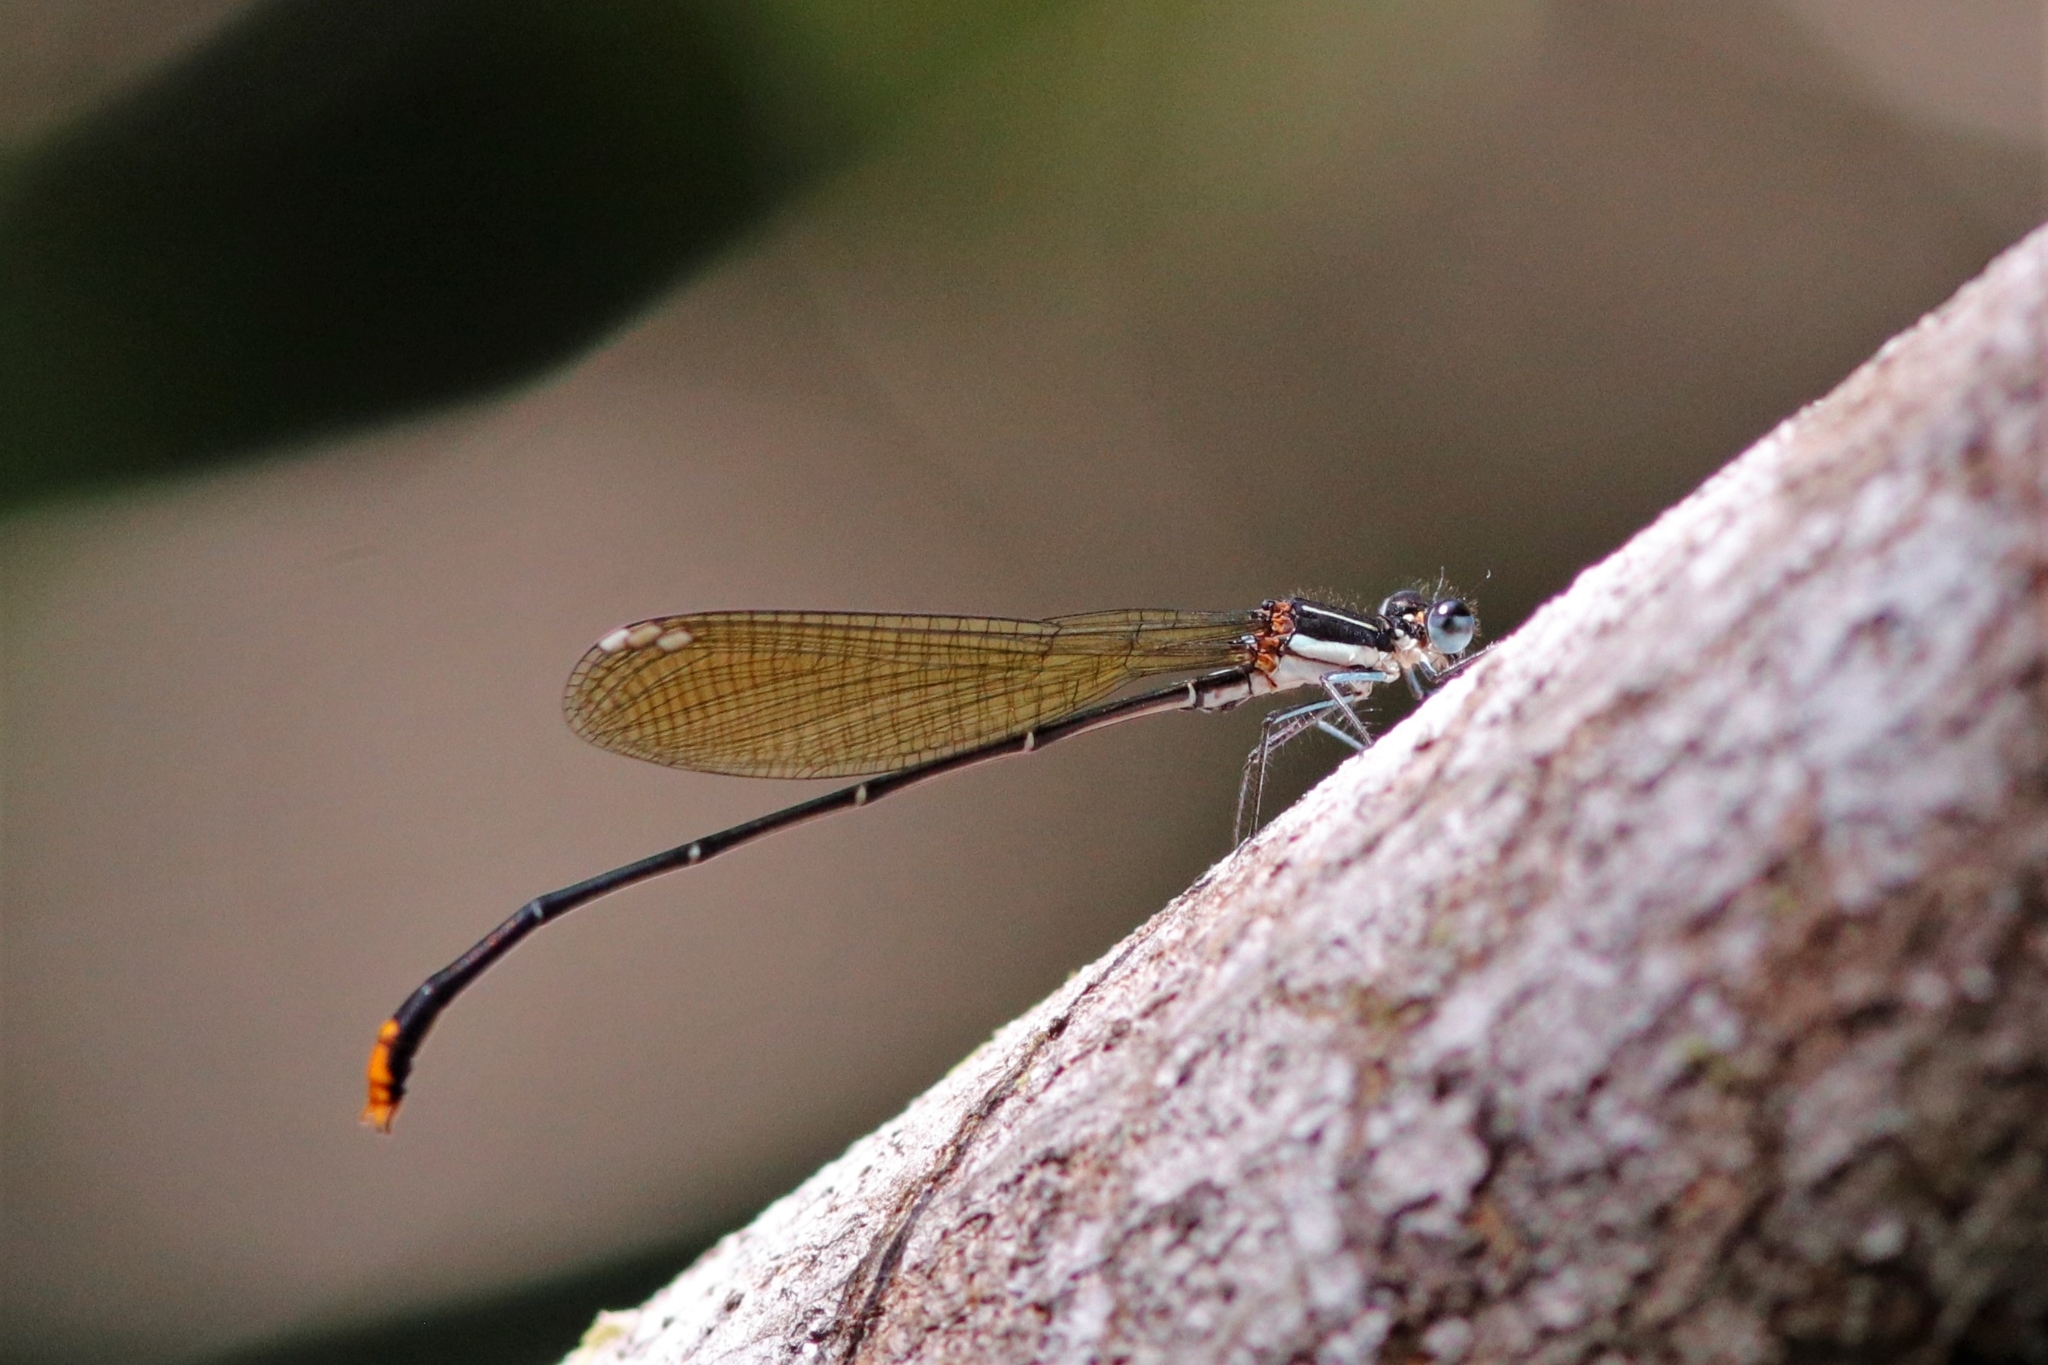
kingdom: Animalia
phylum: Arthropoda
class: Insecta
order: Odonata
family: Platycnemididae
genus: Allocnemis
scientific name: Allocnemis leucosticta
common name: Goldtail
